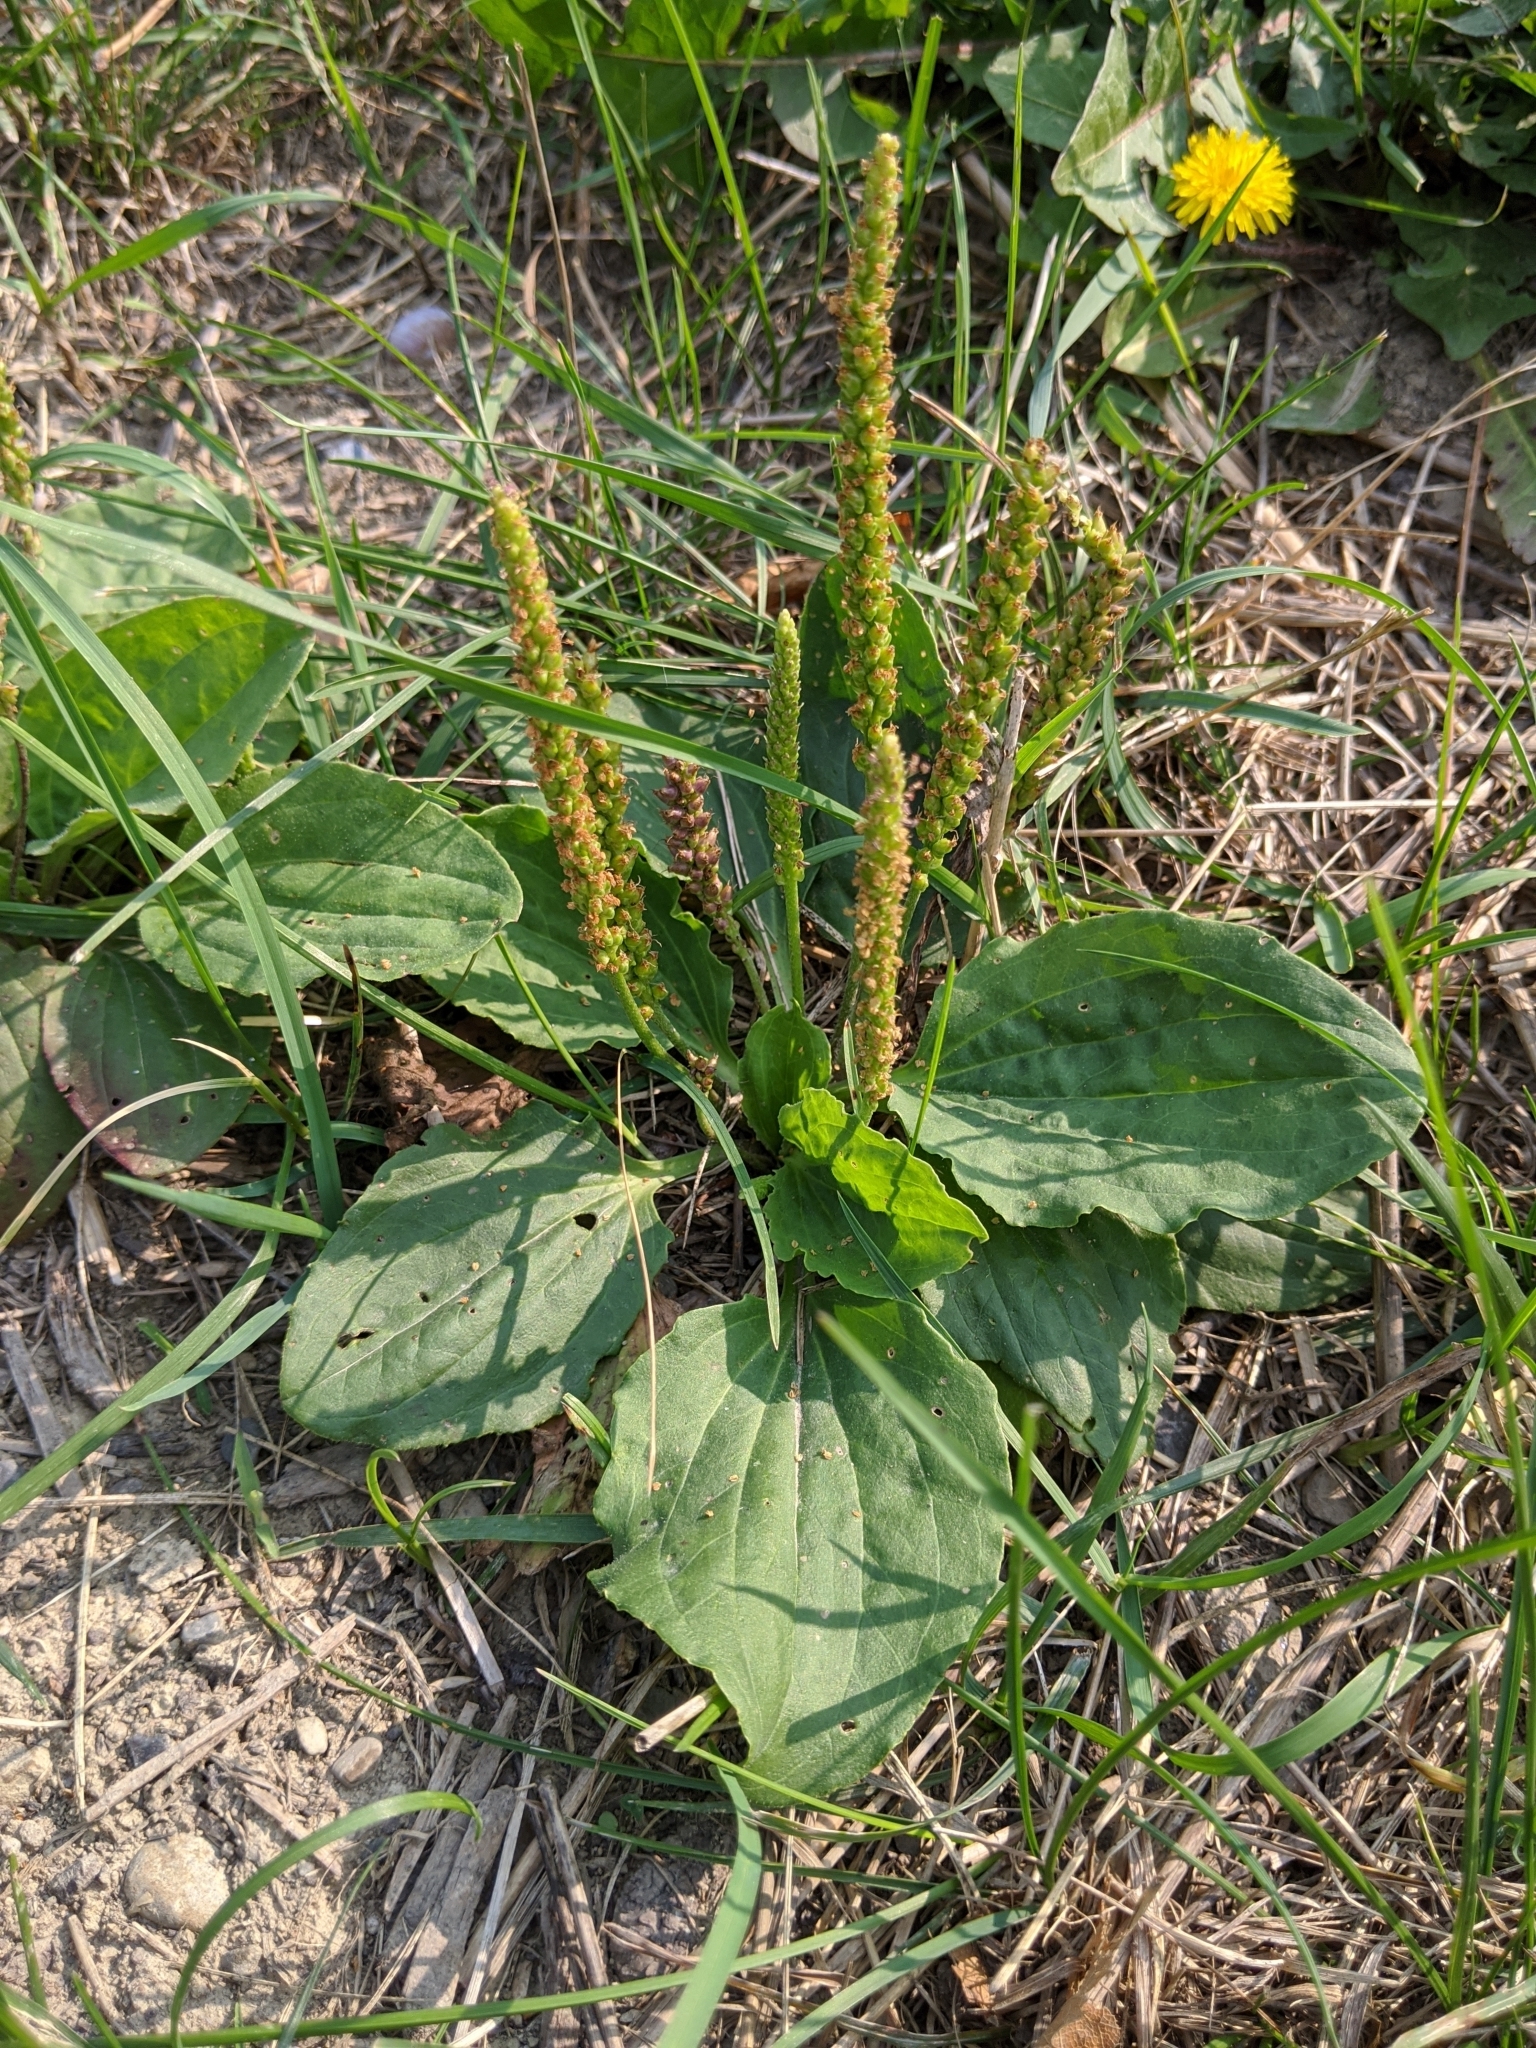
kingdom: Plantae
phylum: Tracheophyta
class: Magnoliopsida
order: Lamiales
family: Plantaginaceae
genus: Plantago
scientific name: Plantago major
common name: Common plantain
